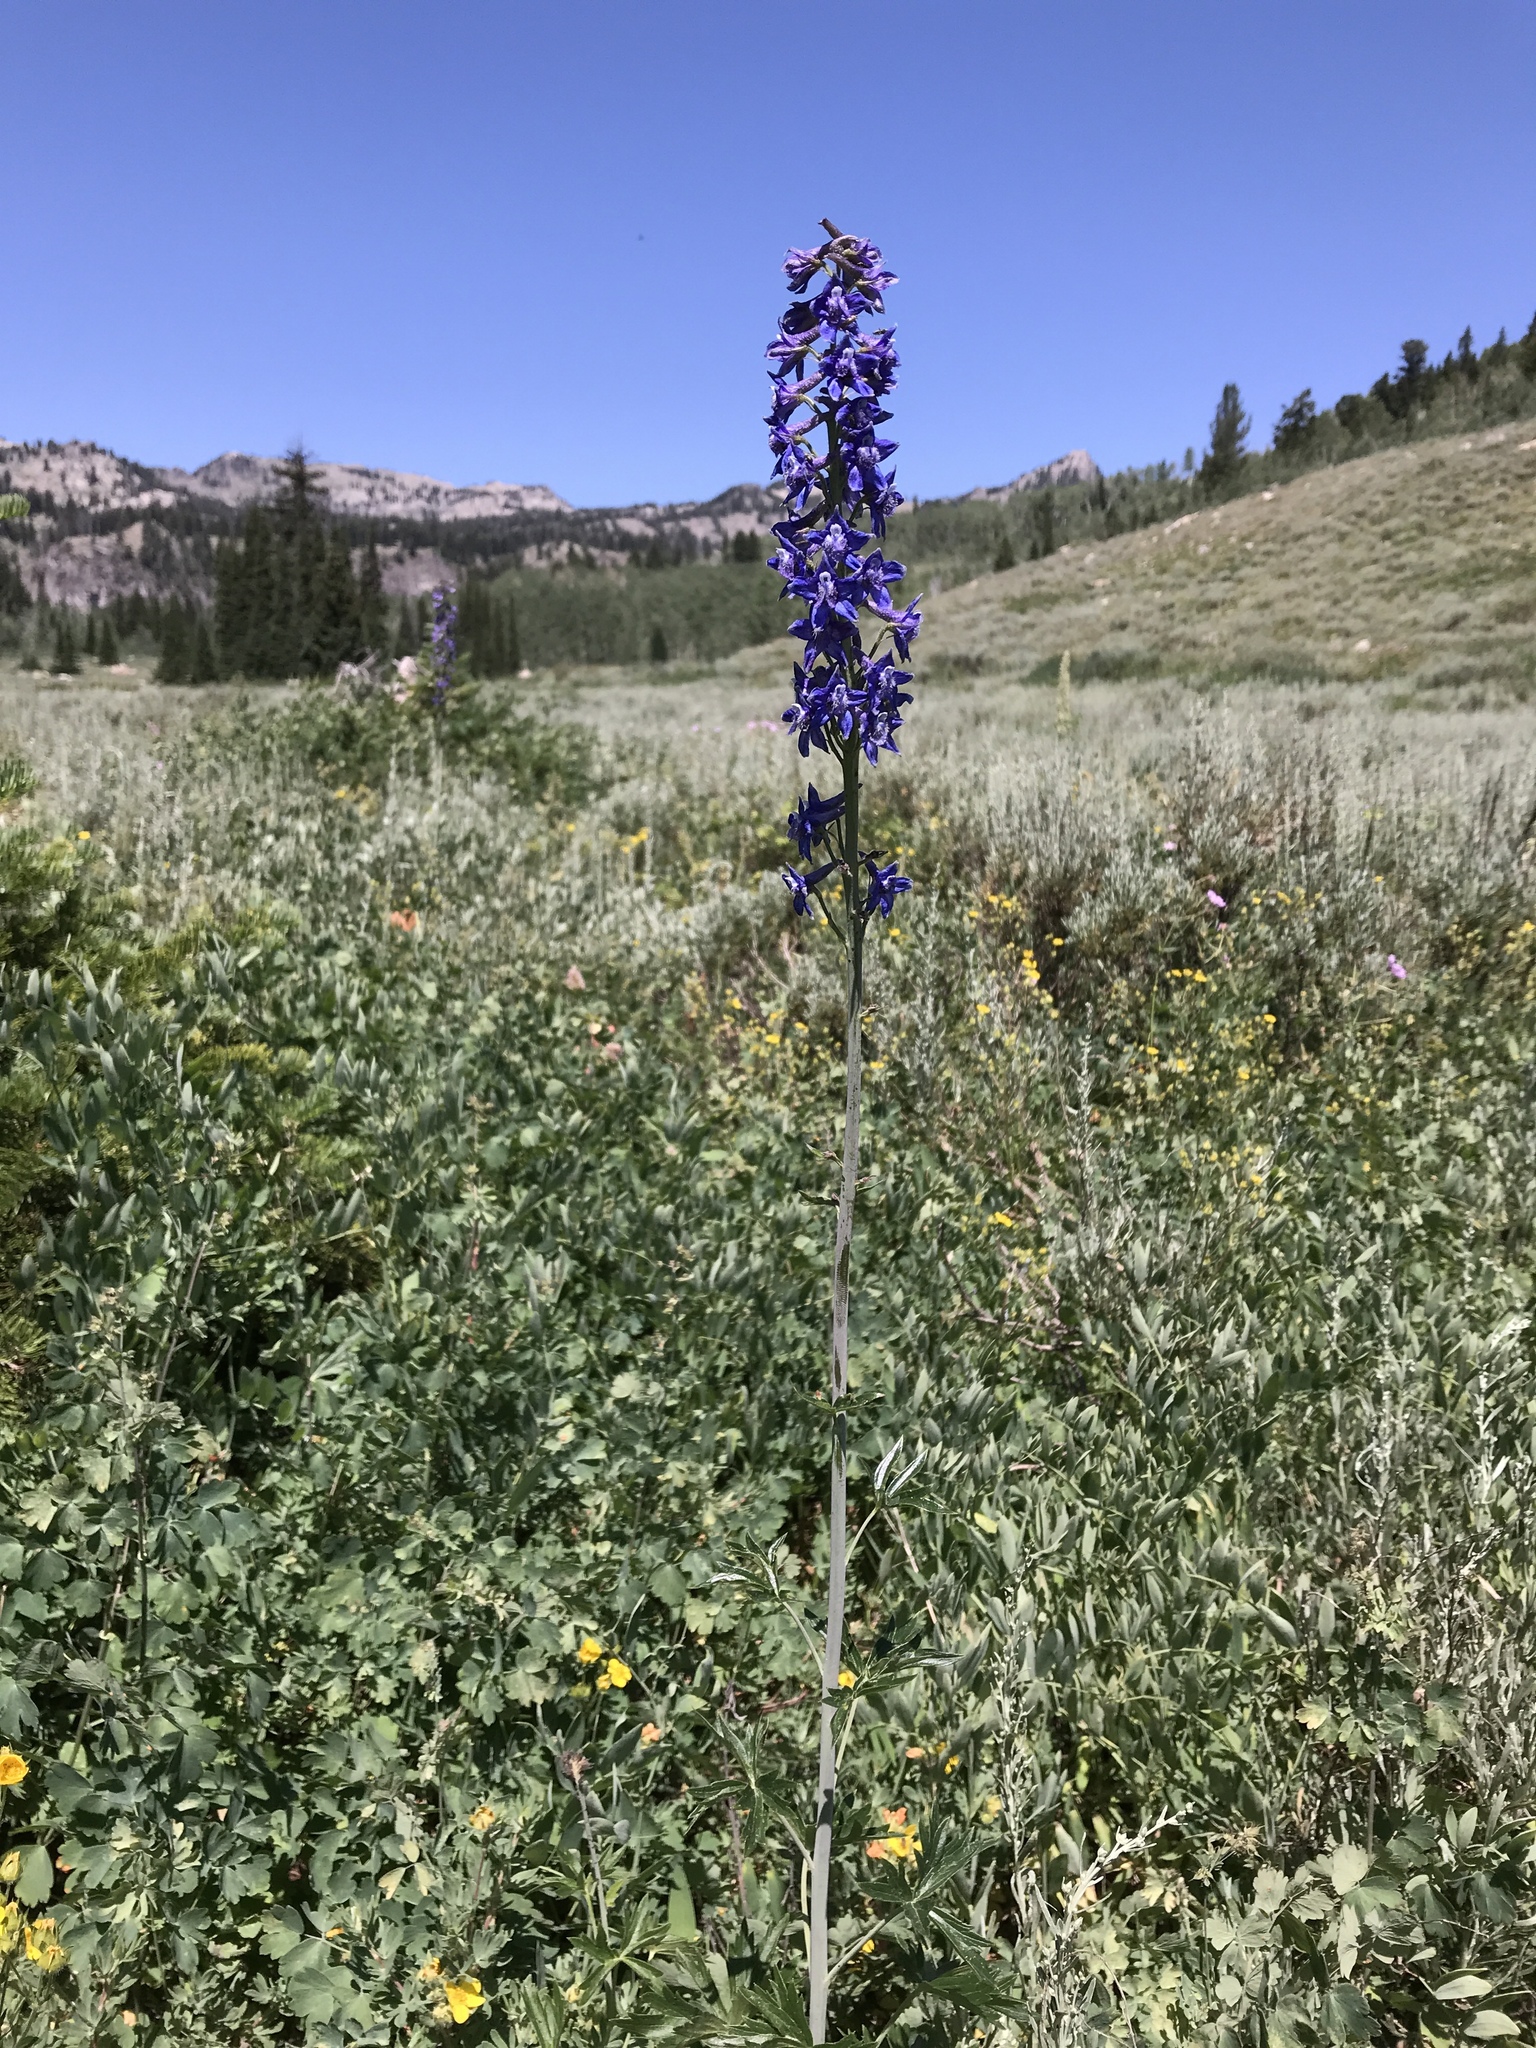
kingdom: Plantae
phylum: Tracheophyta
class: Magnoliopsida
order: Ranunculales
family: Ranunculaceae
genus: Delphinium
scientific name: Delphinium occidentale
